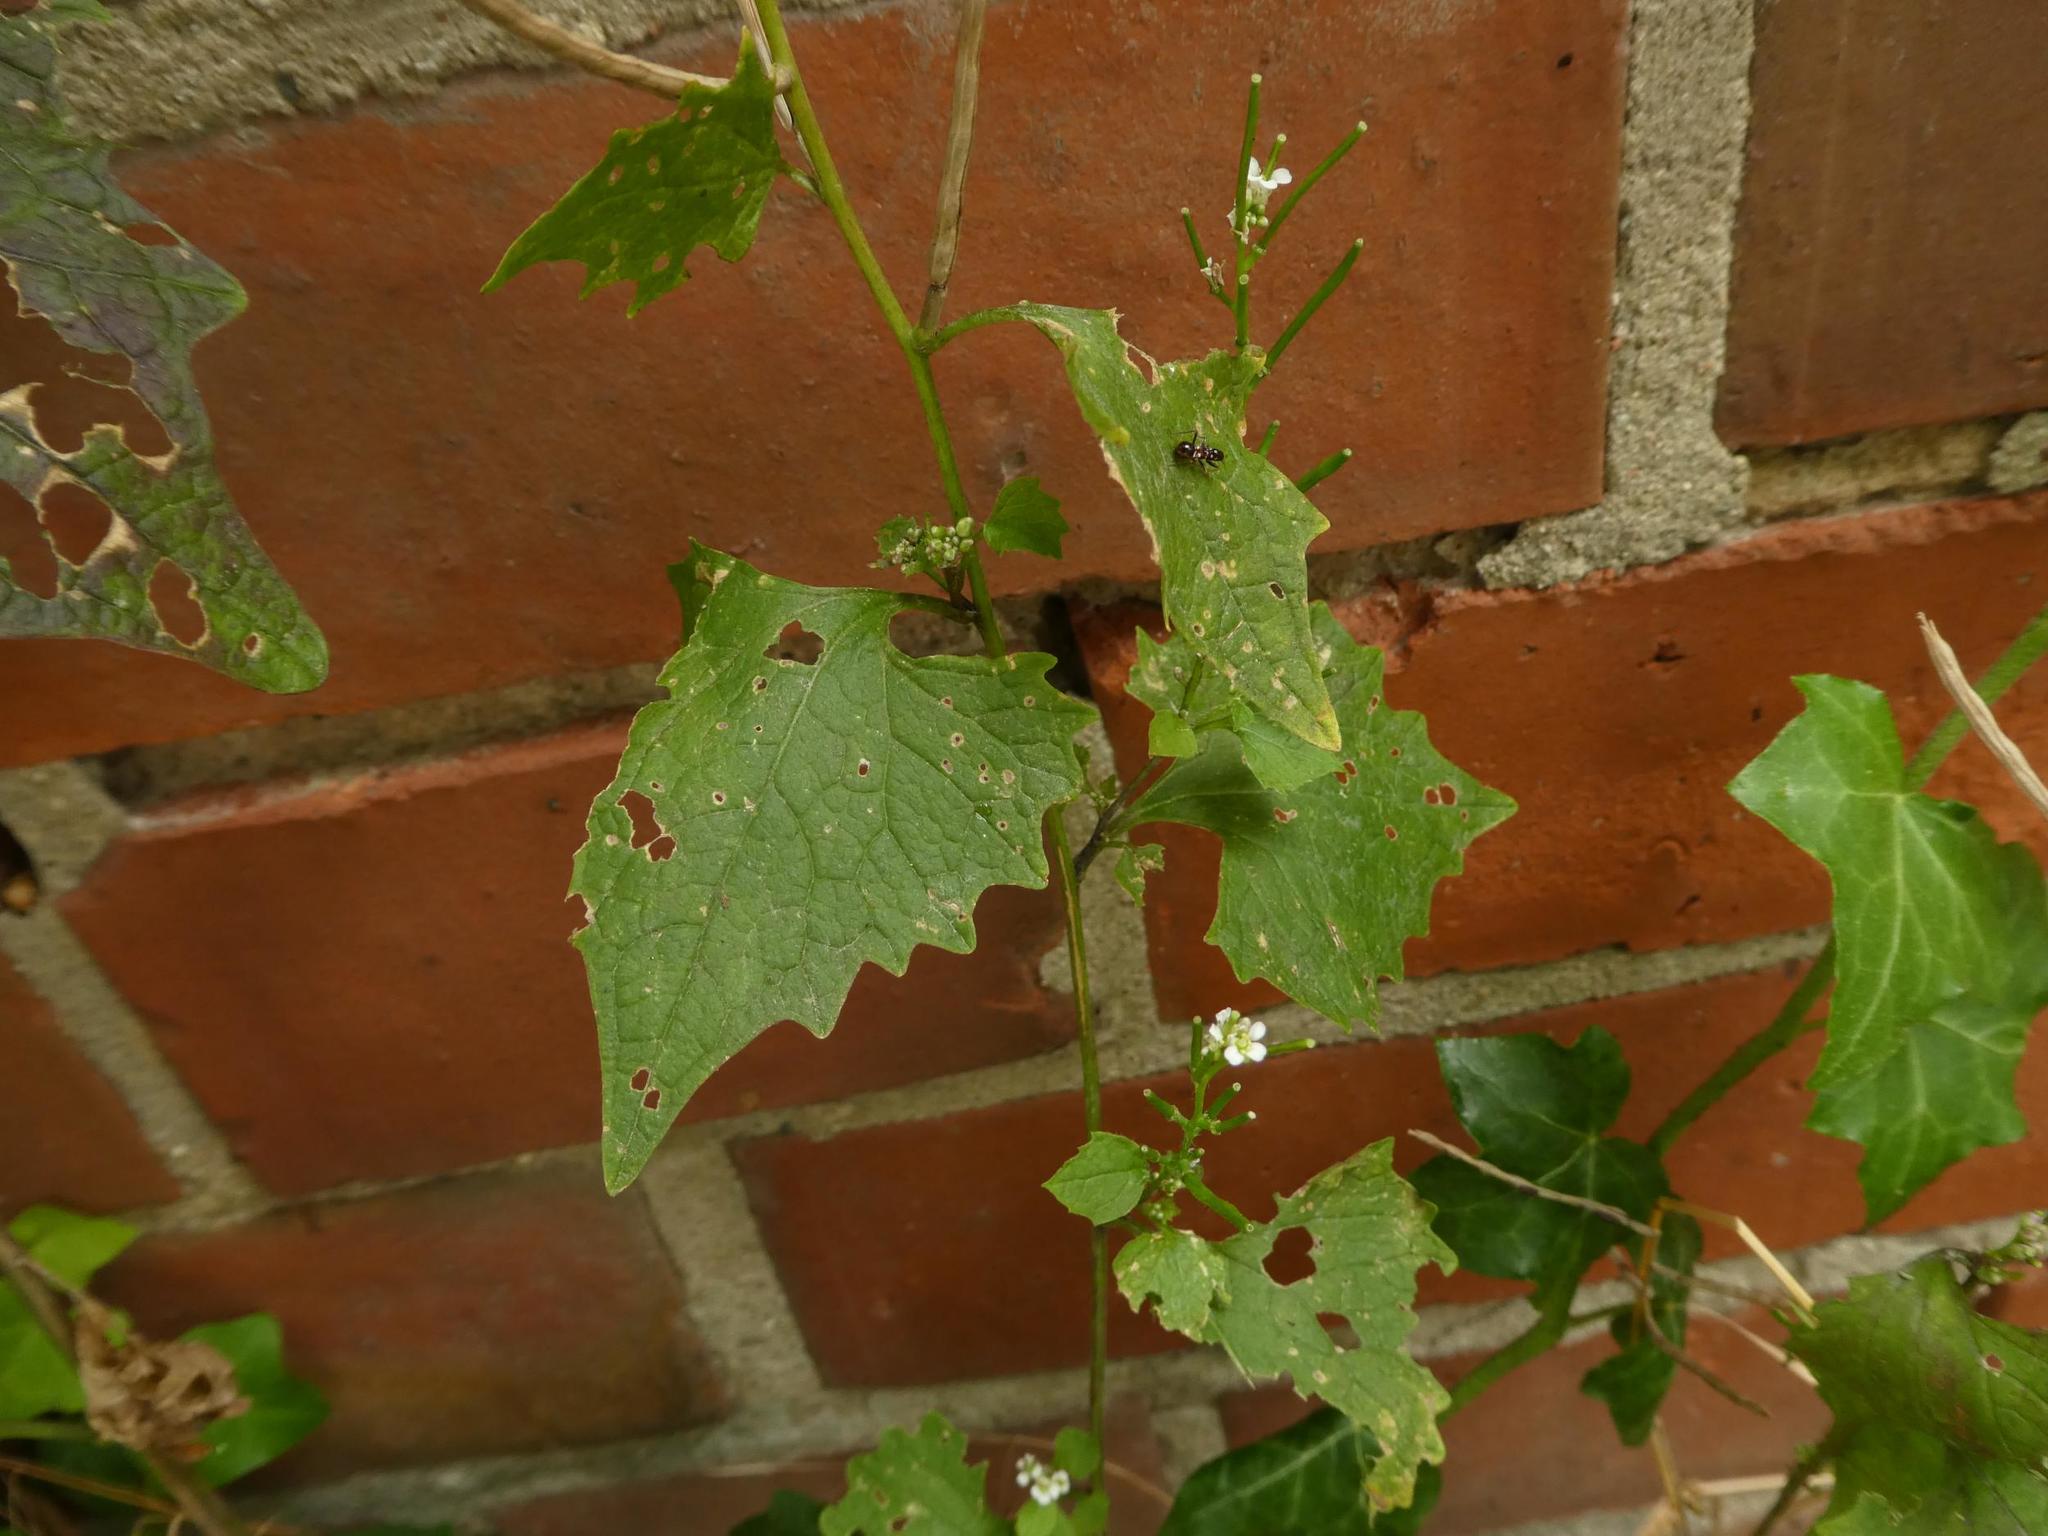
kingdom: Plantae
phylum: Tracheophyta
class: Magnoliopsida
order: Brassicales
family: Brassicaceae
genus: Alliaria
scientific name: Alliaria petiolata
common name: Garlic mustard
